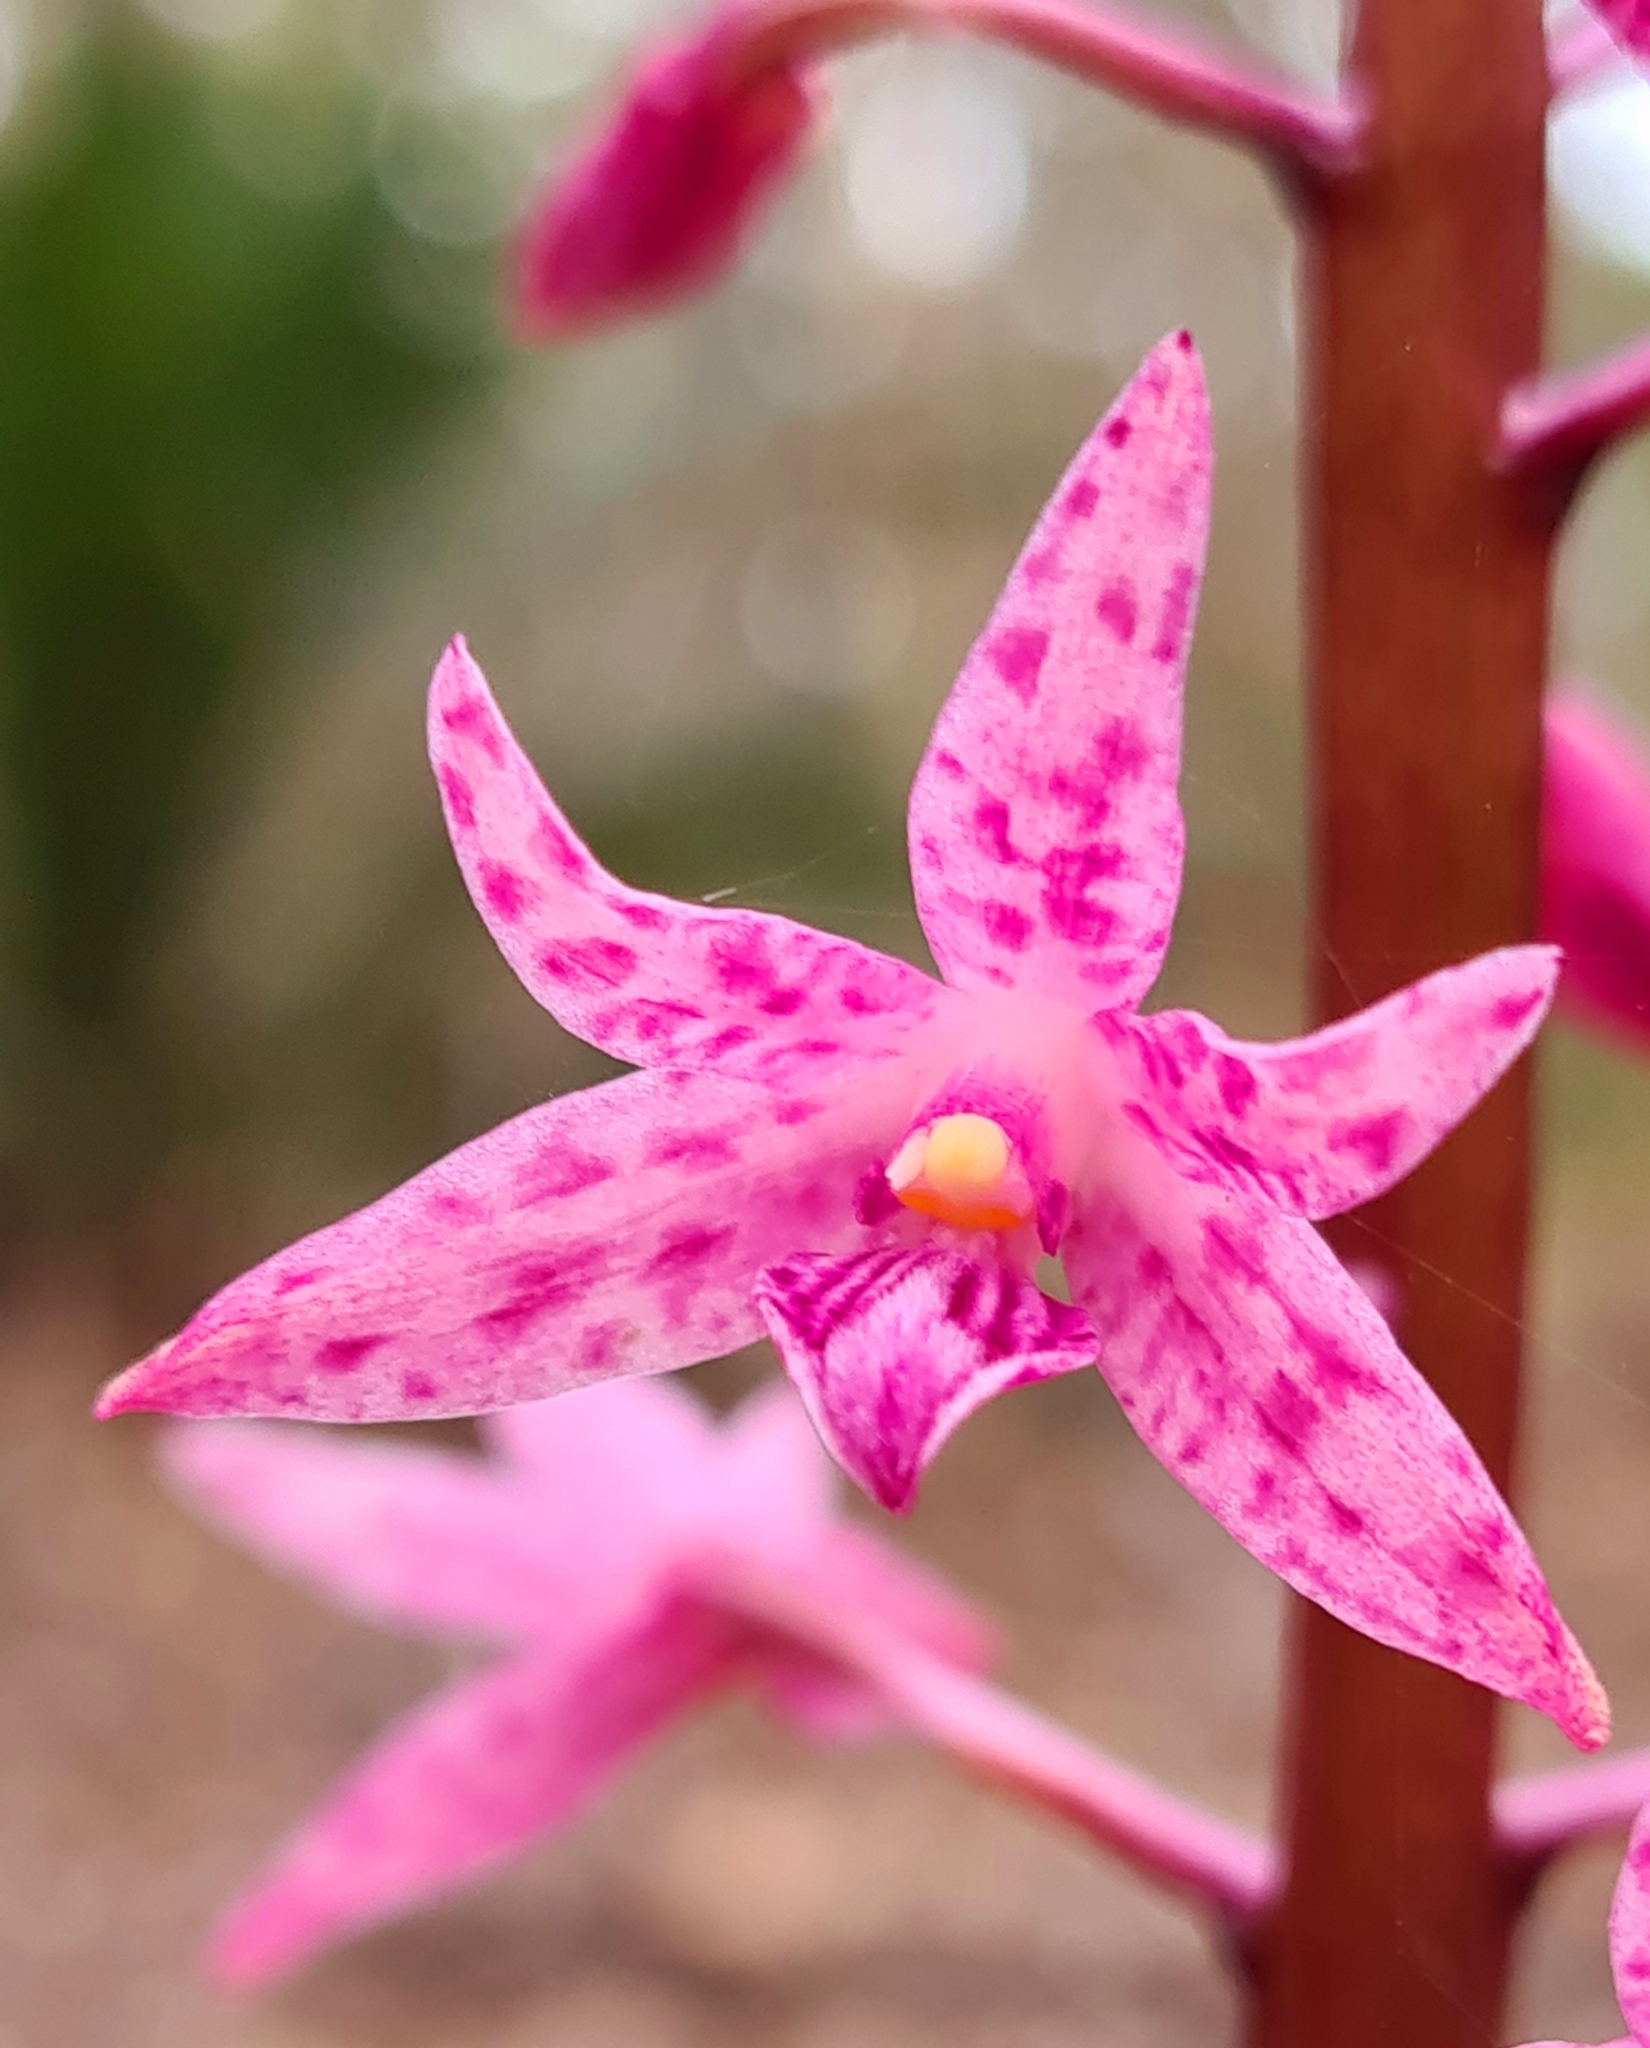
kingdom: Plantae
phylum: Tracheophyta
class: Liliopsida
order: Asparagales
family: Orchidaceae
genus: Dipodium
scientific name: Dipodium squamatum
